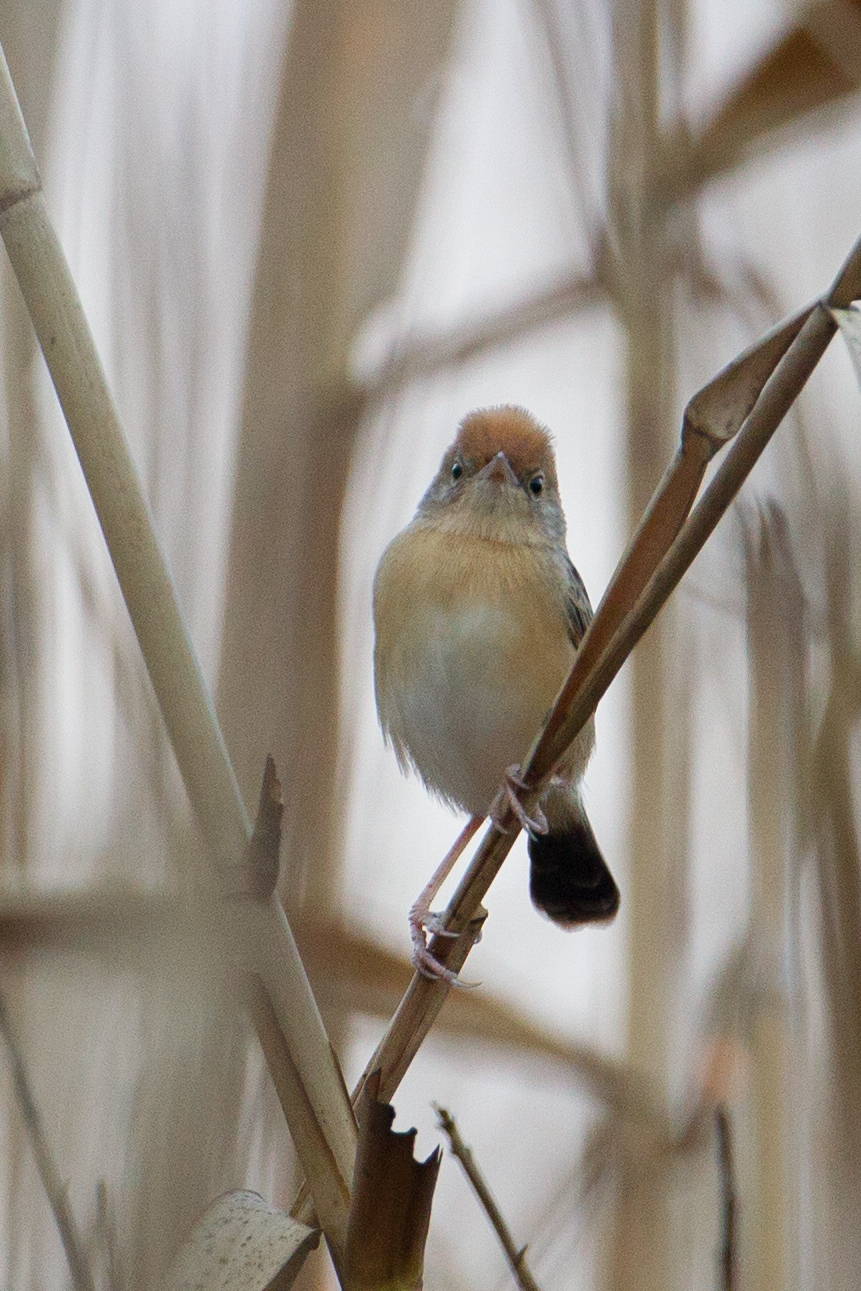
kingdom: Animalia
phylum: Chordata
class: Aves
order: Passeriformes
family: Cisticolidae
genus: Cisticola
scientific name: Cisticola exilis
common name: Golden-headed cisticola
